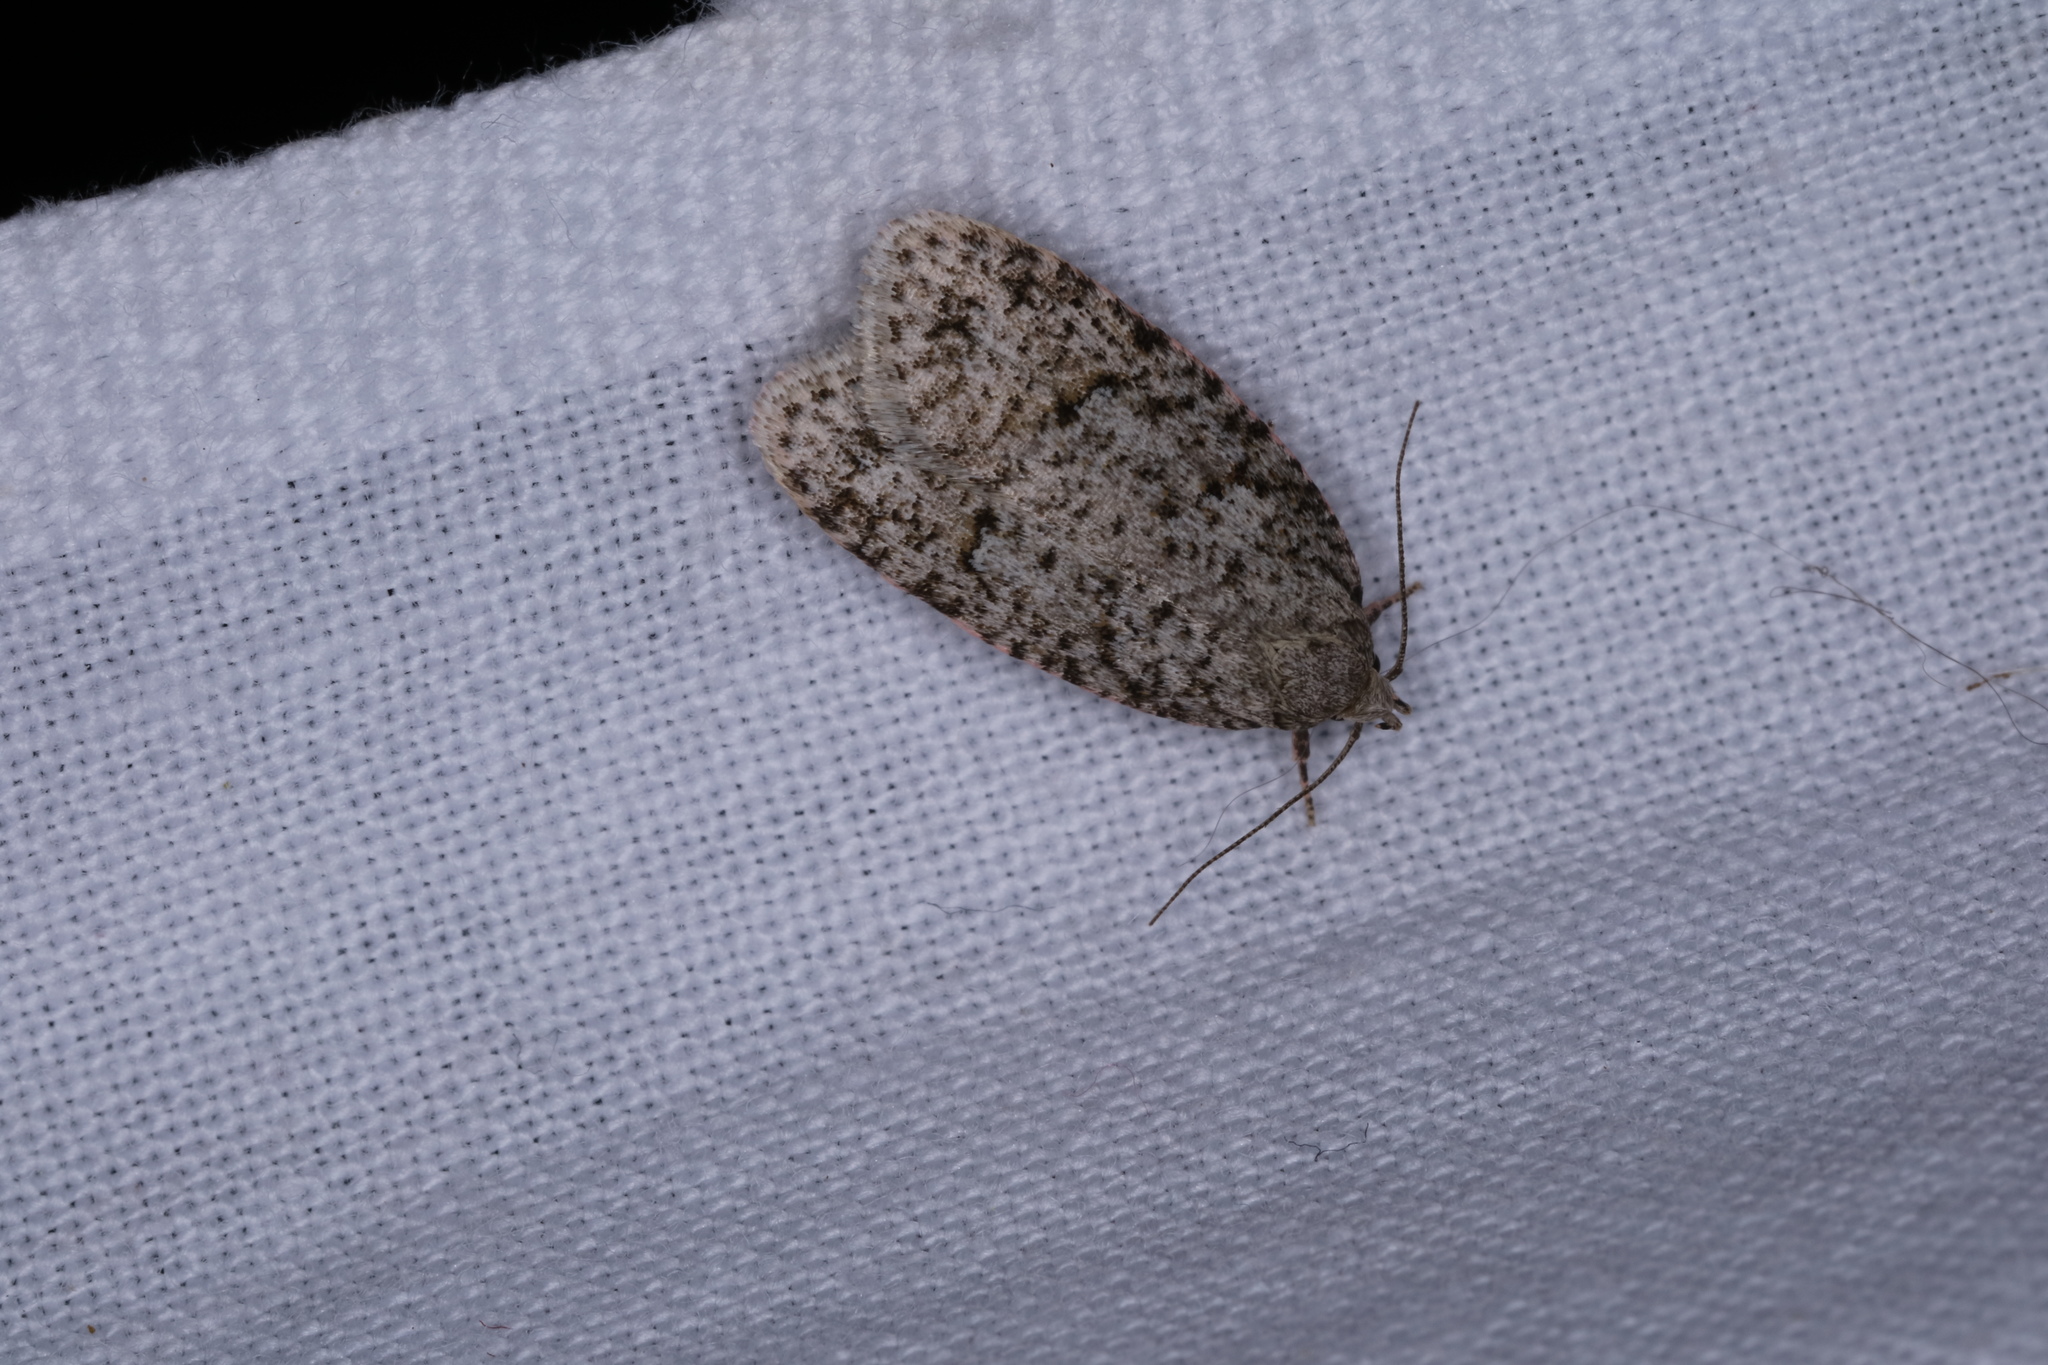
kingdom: Animalia
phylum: Arthropoda
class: Insecta
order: Lepidoptera
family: Depressariidae
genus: Bibarrambla
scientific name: Bibarrambla allenella
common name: Bog bibarrambla moth
